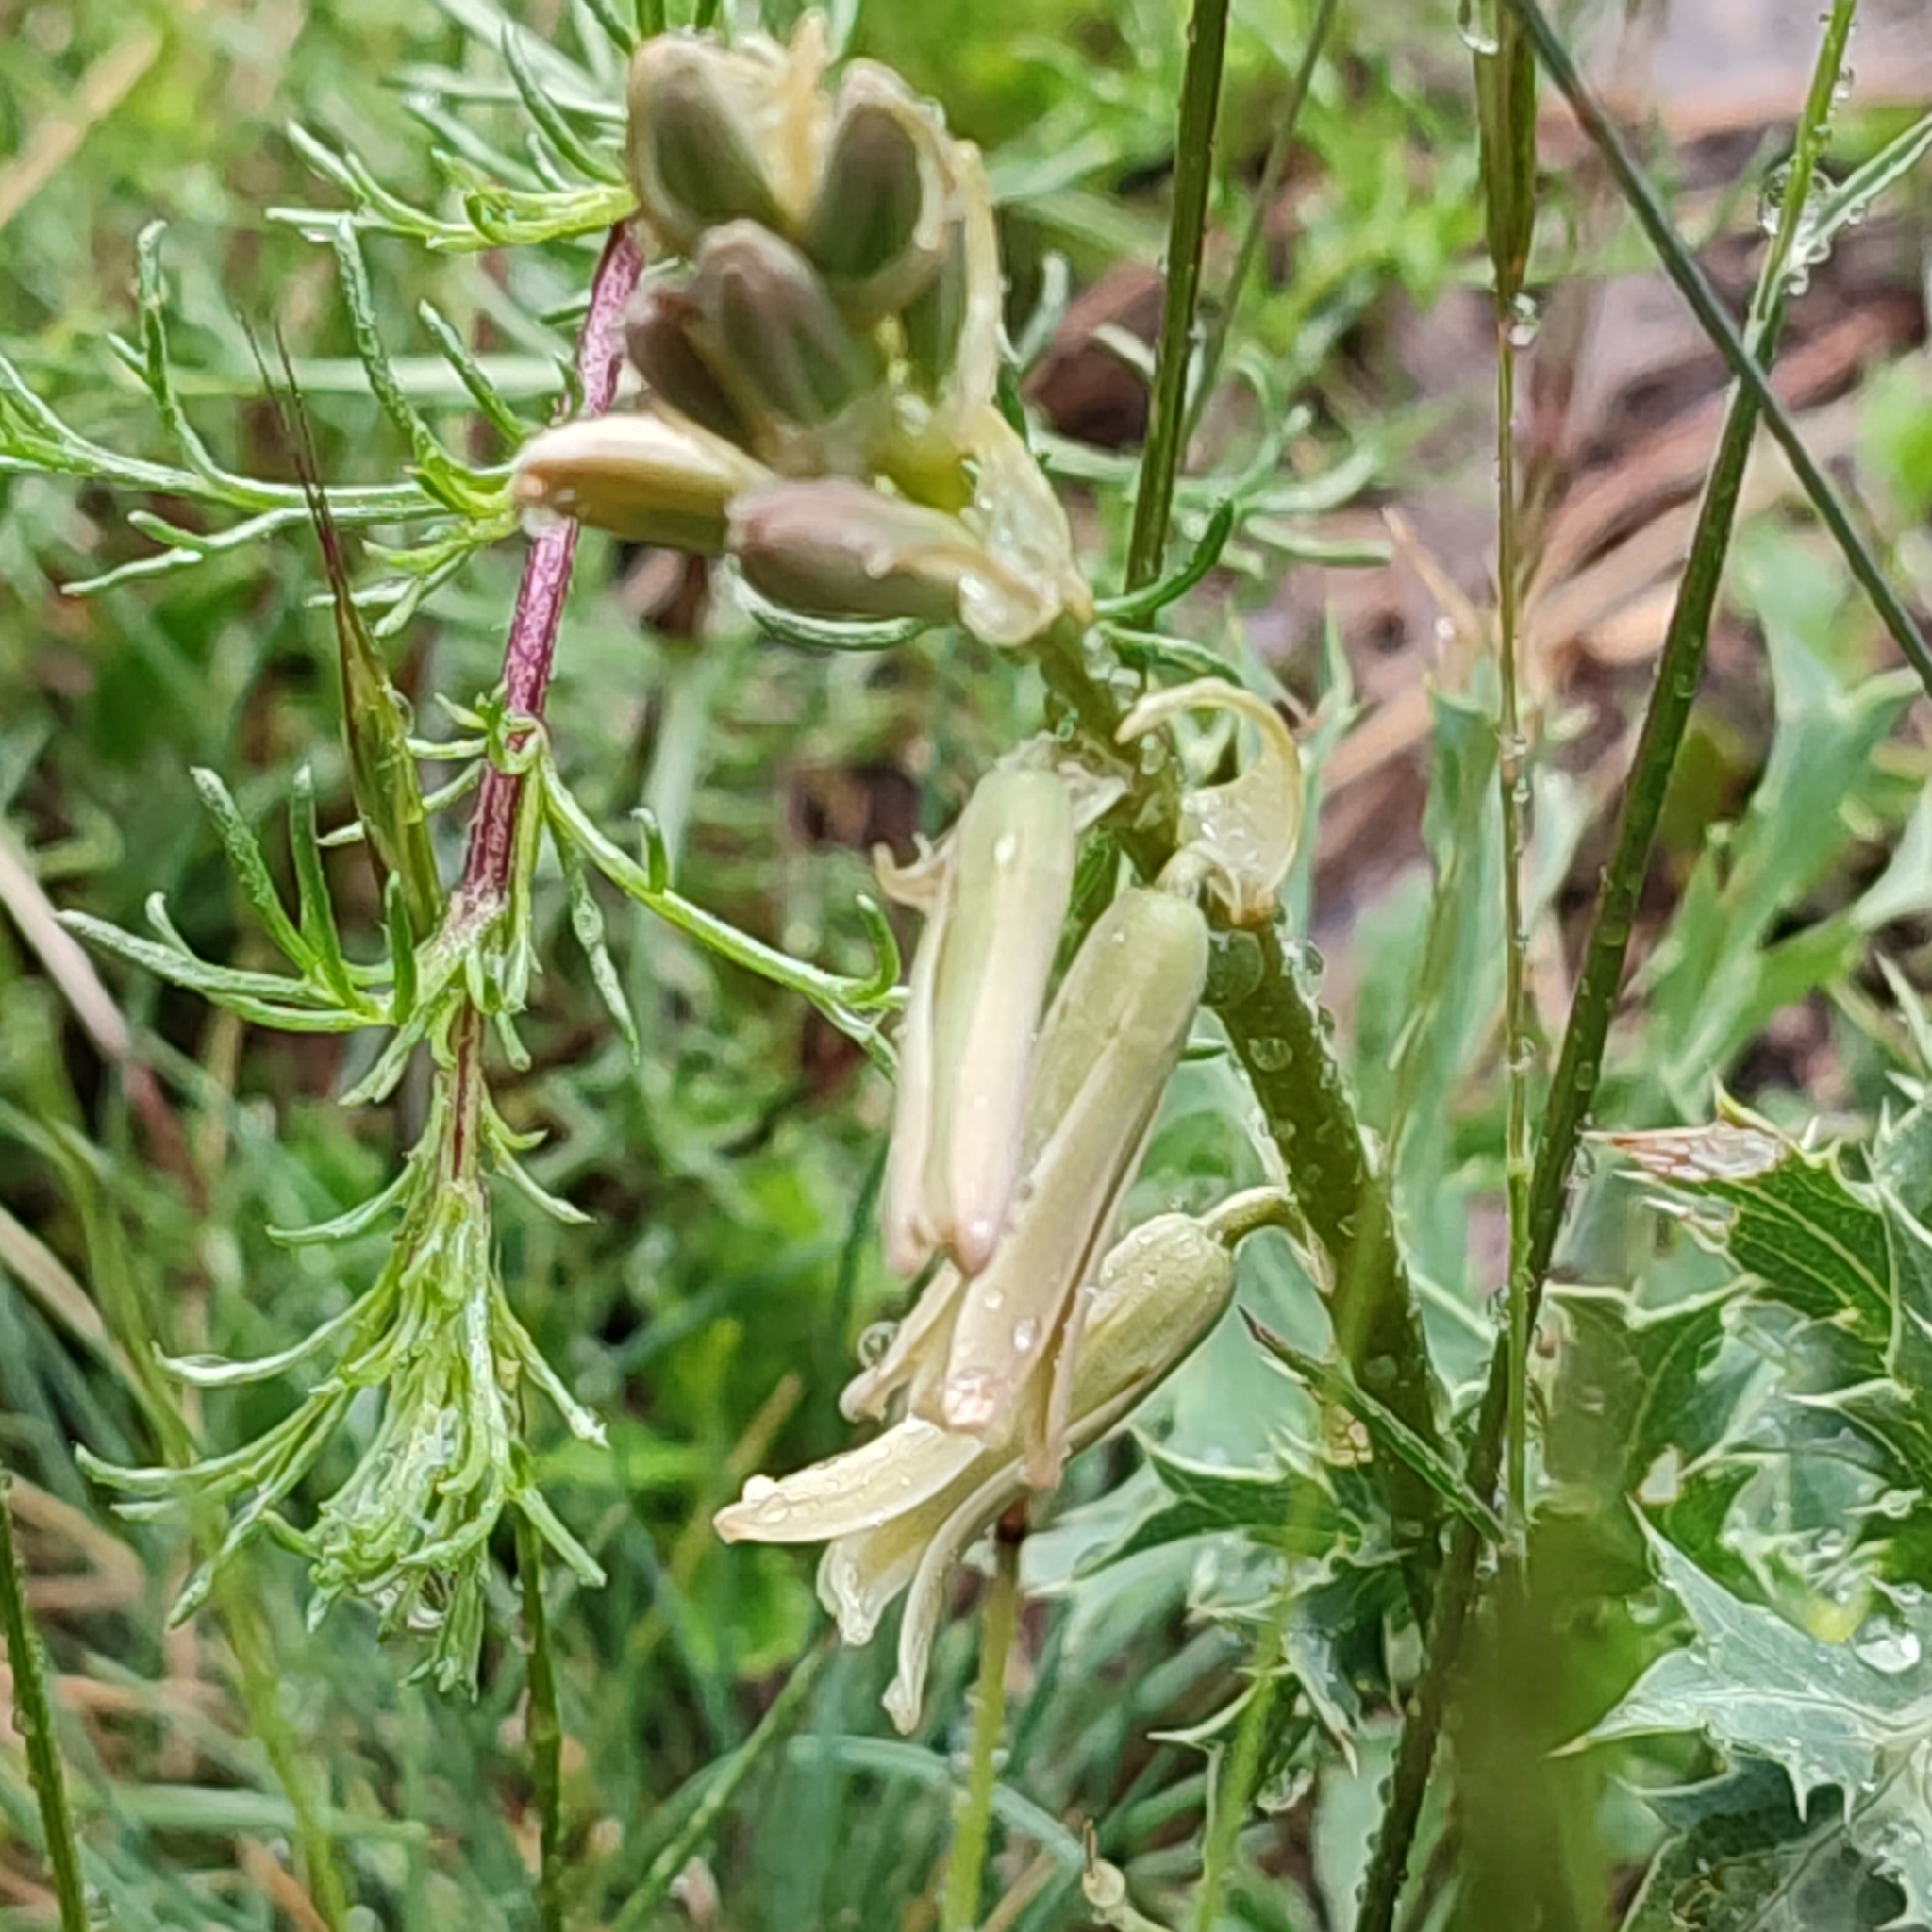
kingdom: Plantae
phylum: Tracheophyta
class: Liliopsida
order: Asparagales
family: Asparagaceae
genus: Dipcadi
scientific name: Dipcadi serotinum
